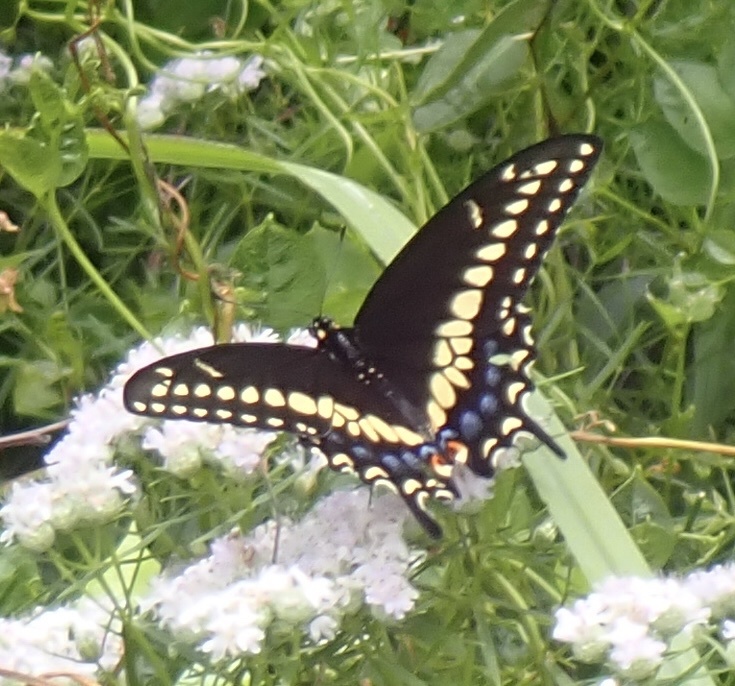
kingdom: Animalia
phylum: Arthropoda
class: Insecta
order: Lepidoptera
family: Papilionidae
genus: Papilio
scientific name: Papilio polyxenes
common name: Black swallowtail
